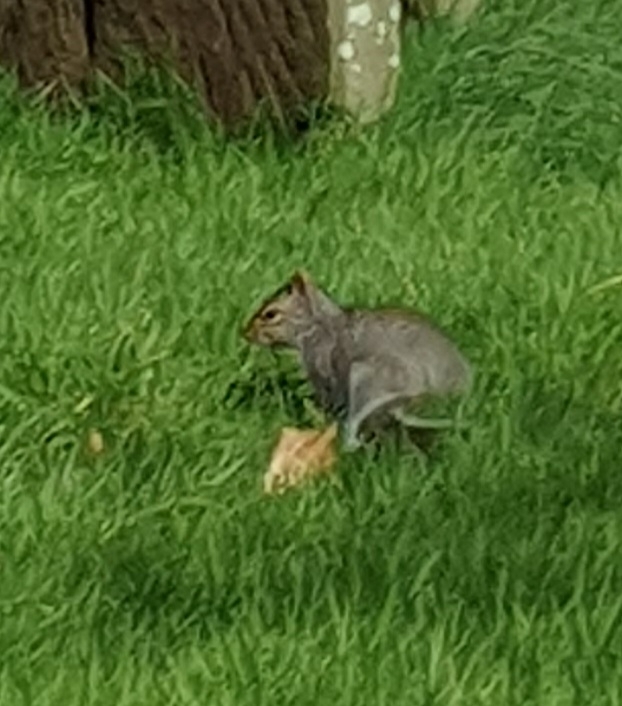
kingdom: Animalia
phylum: Chordata
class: Mammalia
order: Rodentia
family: Sciuridae
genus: Sciurus
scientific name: Sciurus carolinensis
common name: Eastern gray squirrel
